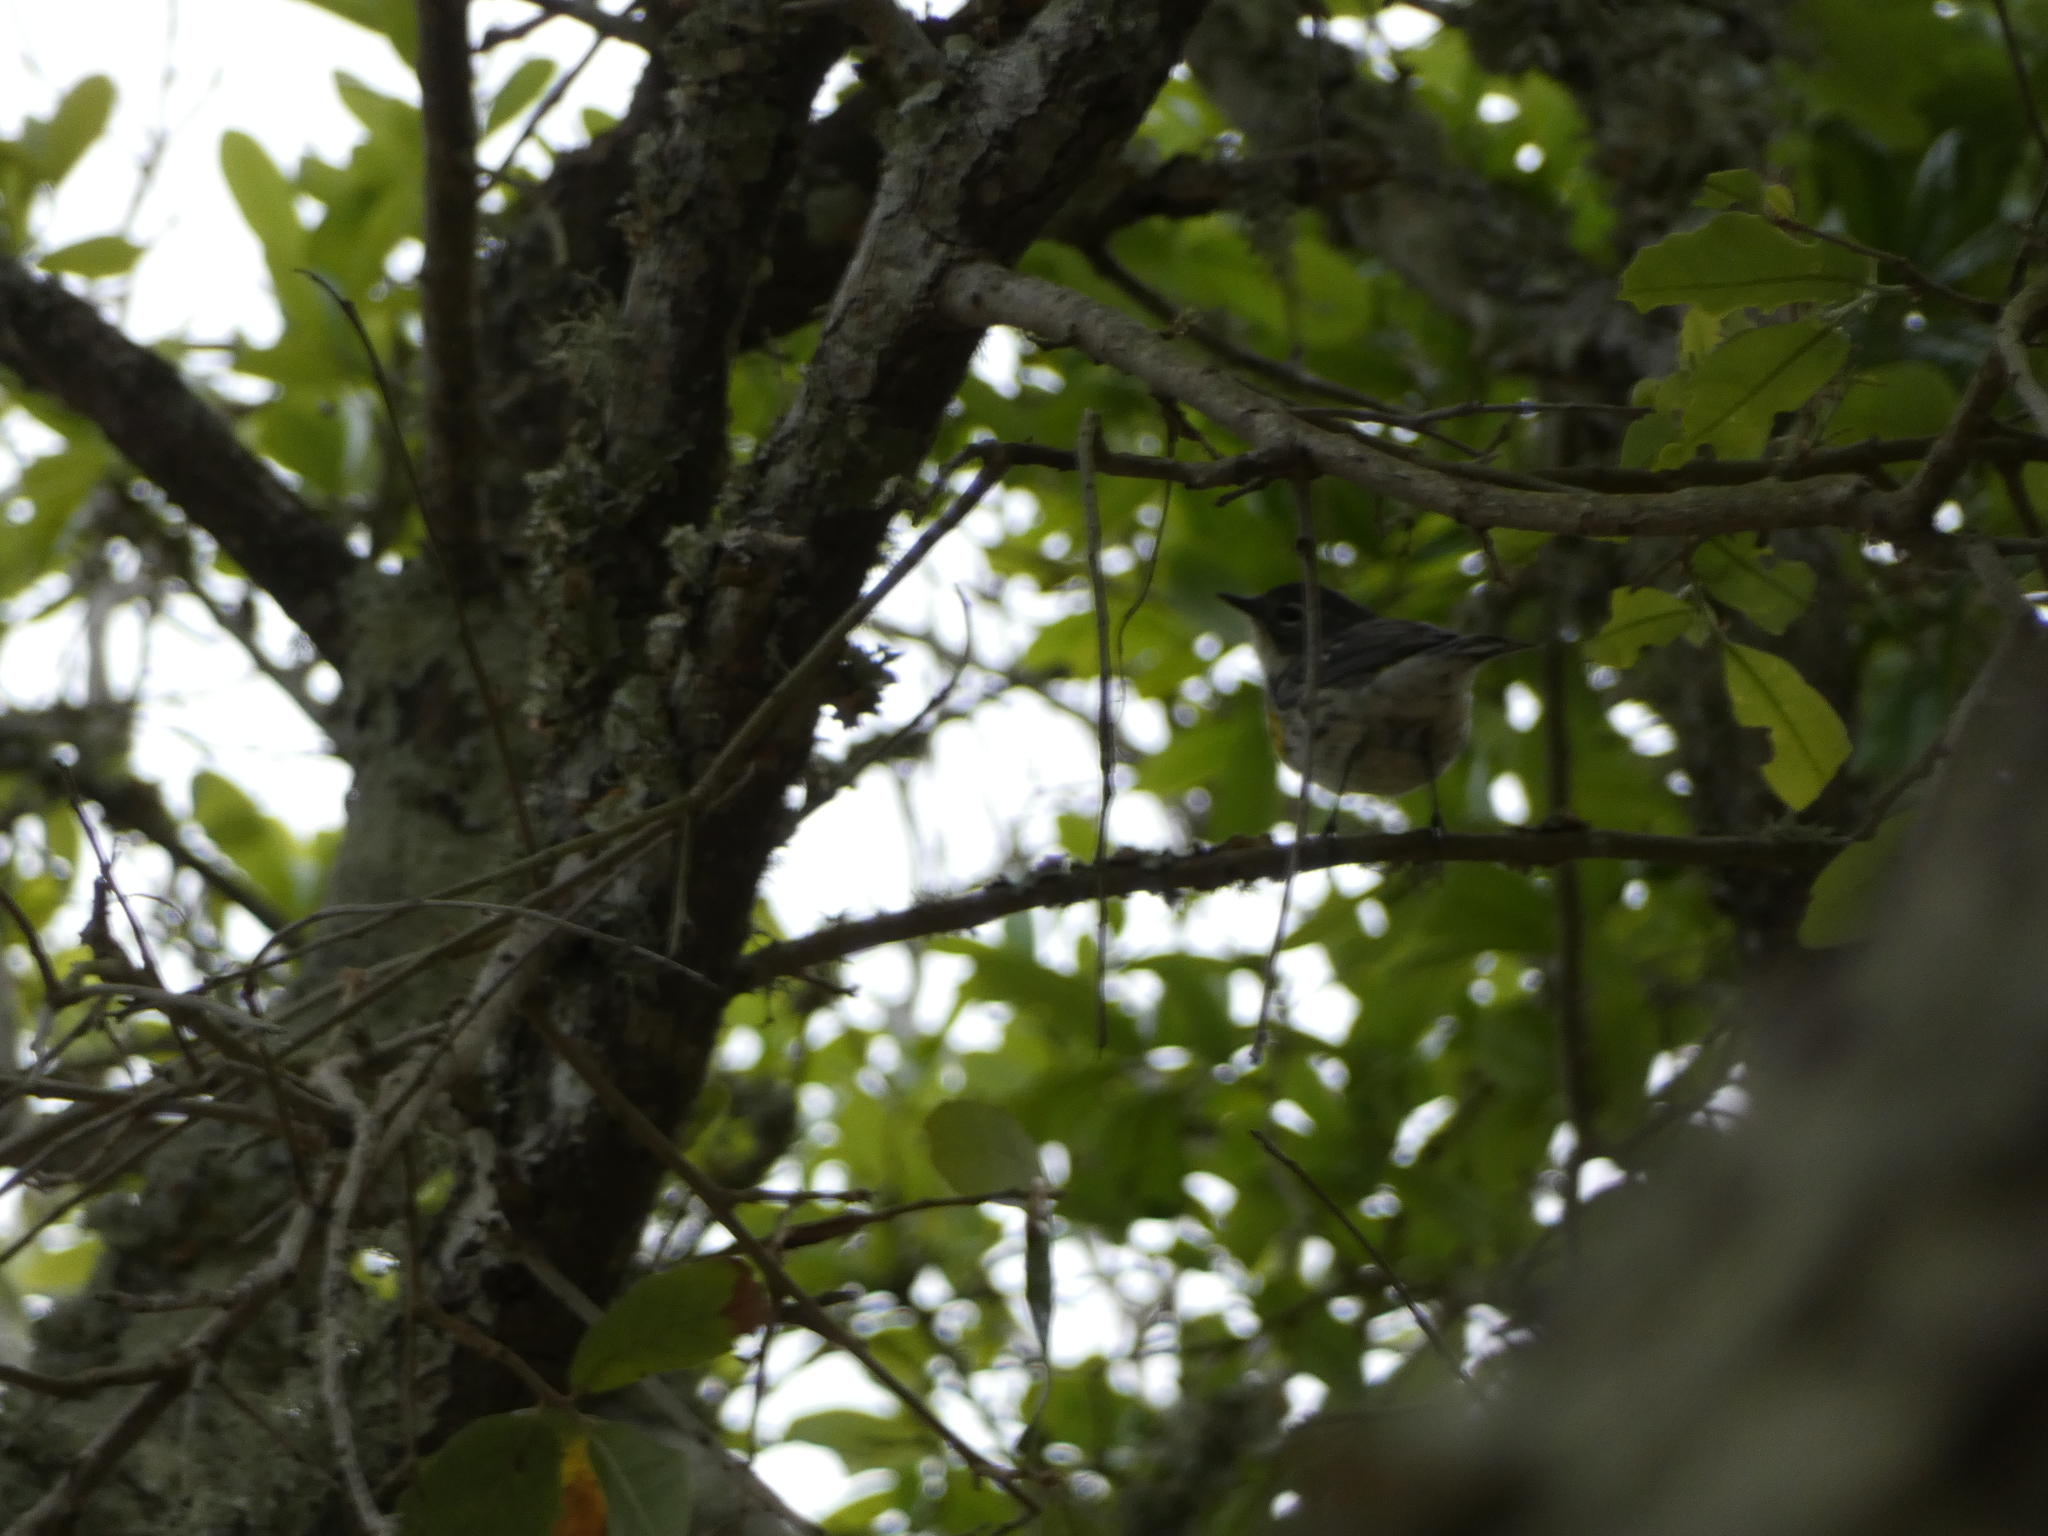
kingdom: Animalia
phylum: Chordata
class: Aves
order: Passeriformes
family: Parulidae
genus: Setophaga
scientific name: Setophaga coronata
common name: Myrtle warbler
